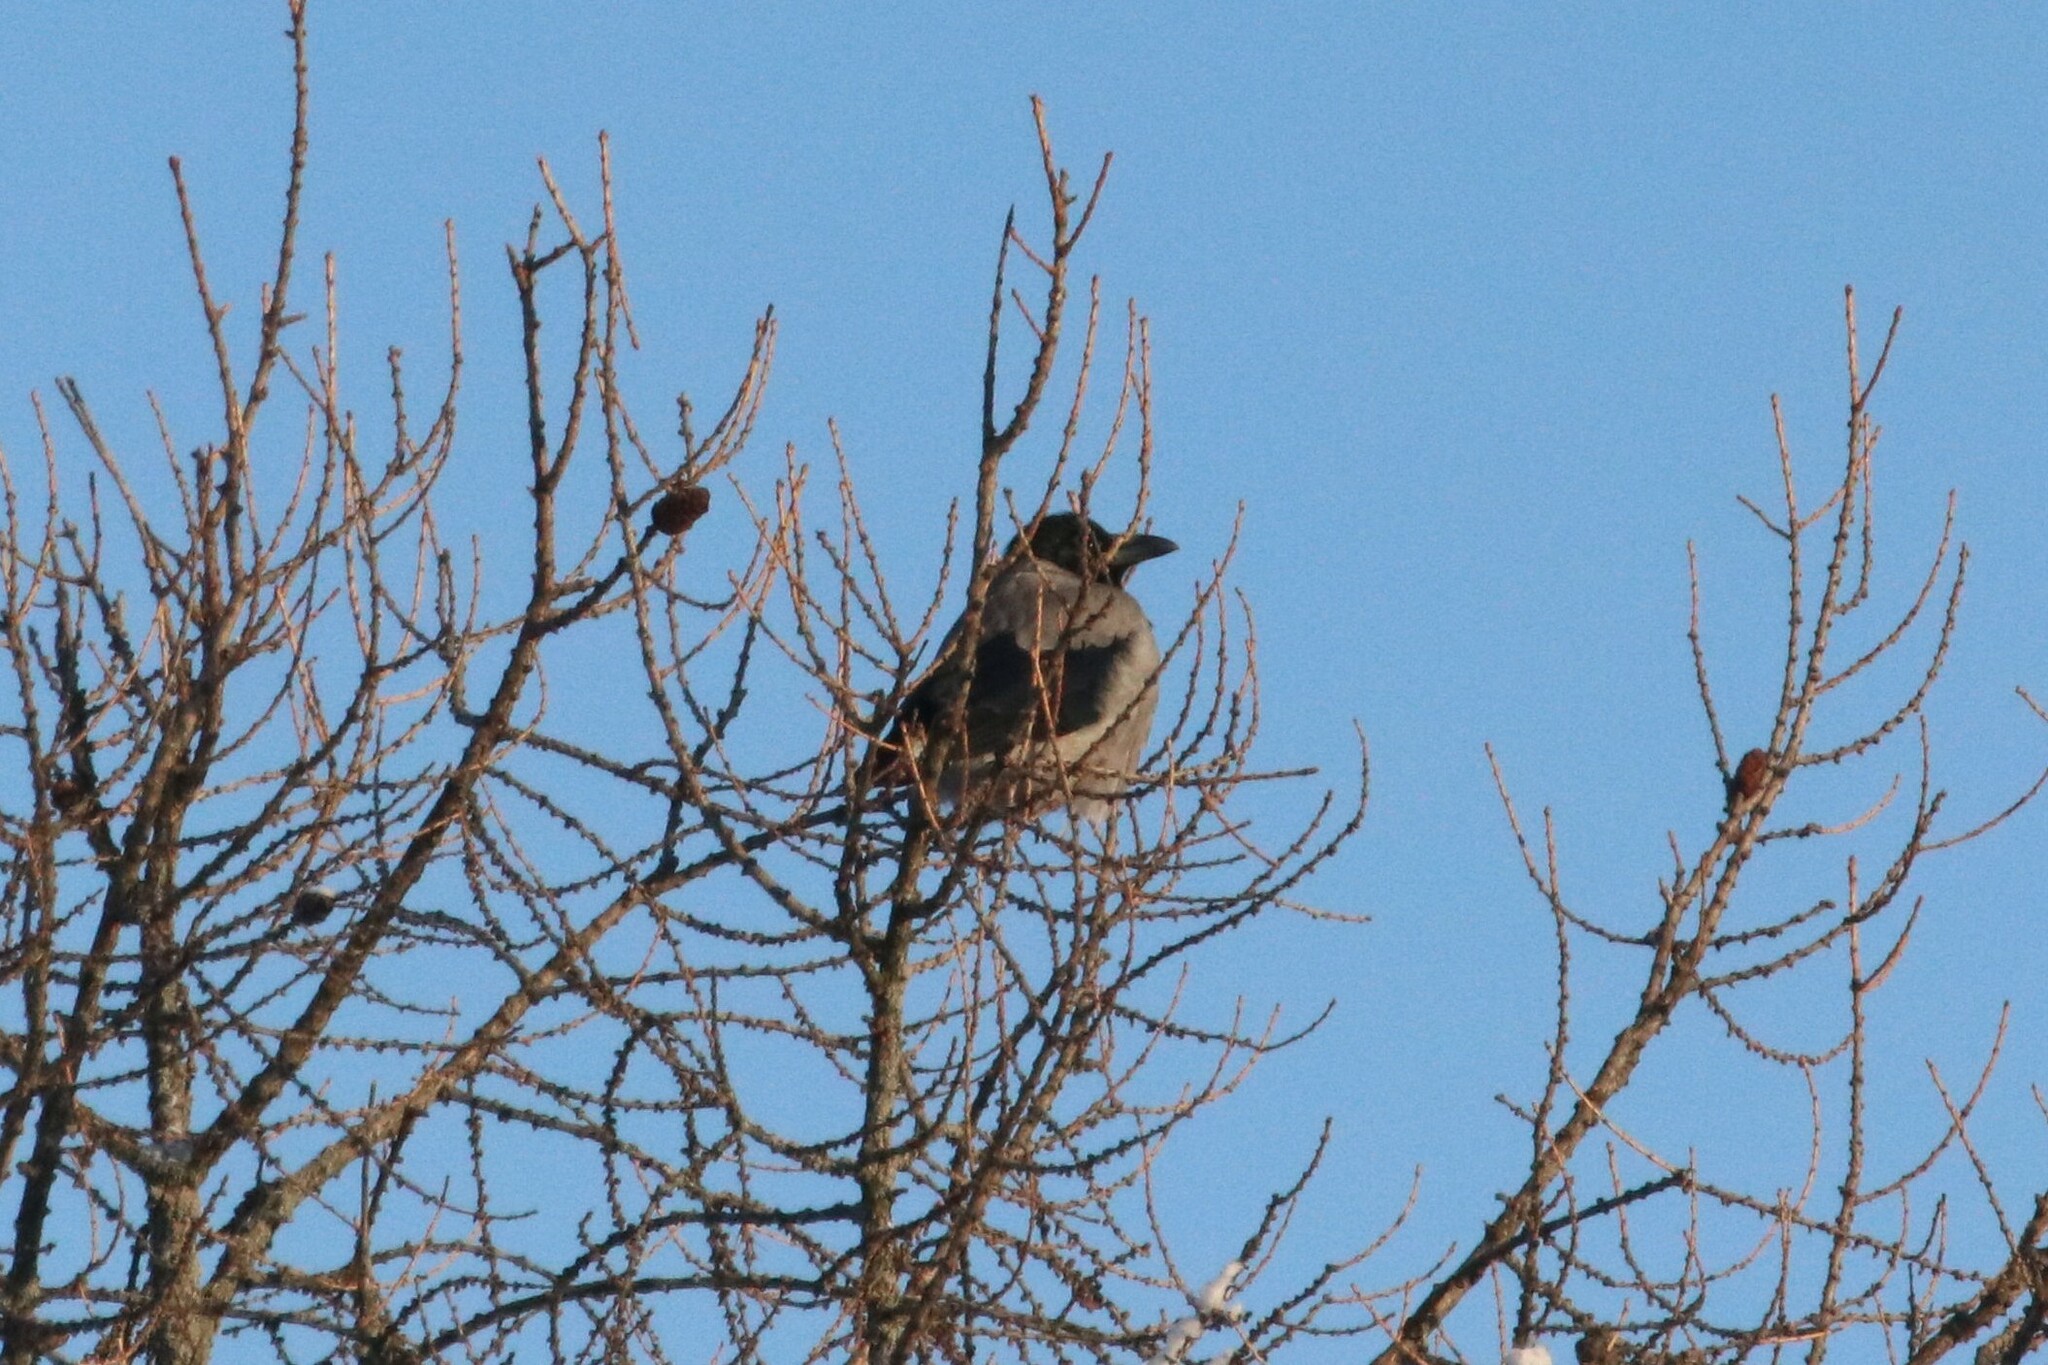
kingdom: Animalia
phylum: Chordata
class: Aves
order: Passeriformes
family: Corvidae
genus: Corvus
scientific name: Corvus cornix
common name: Hooded crow
